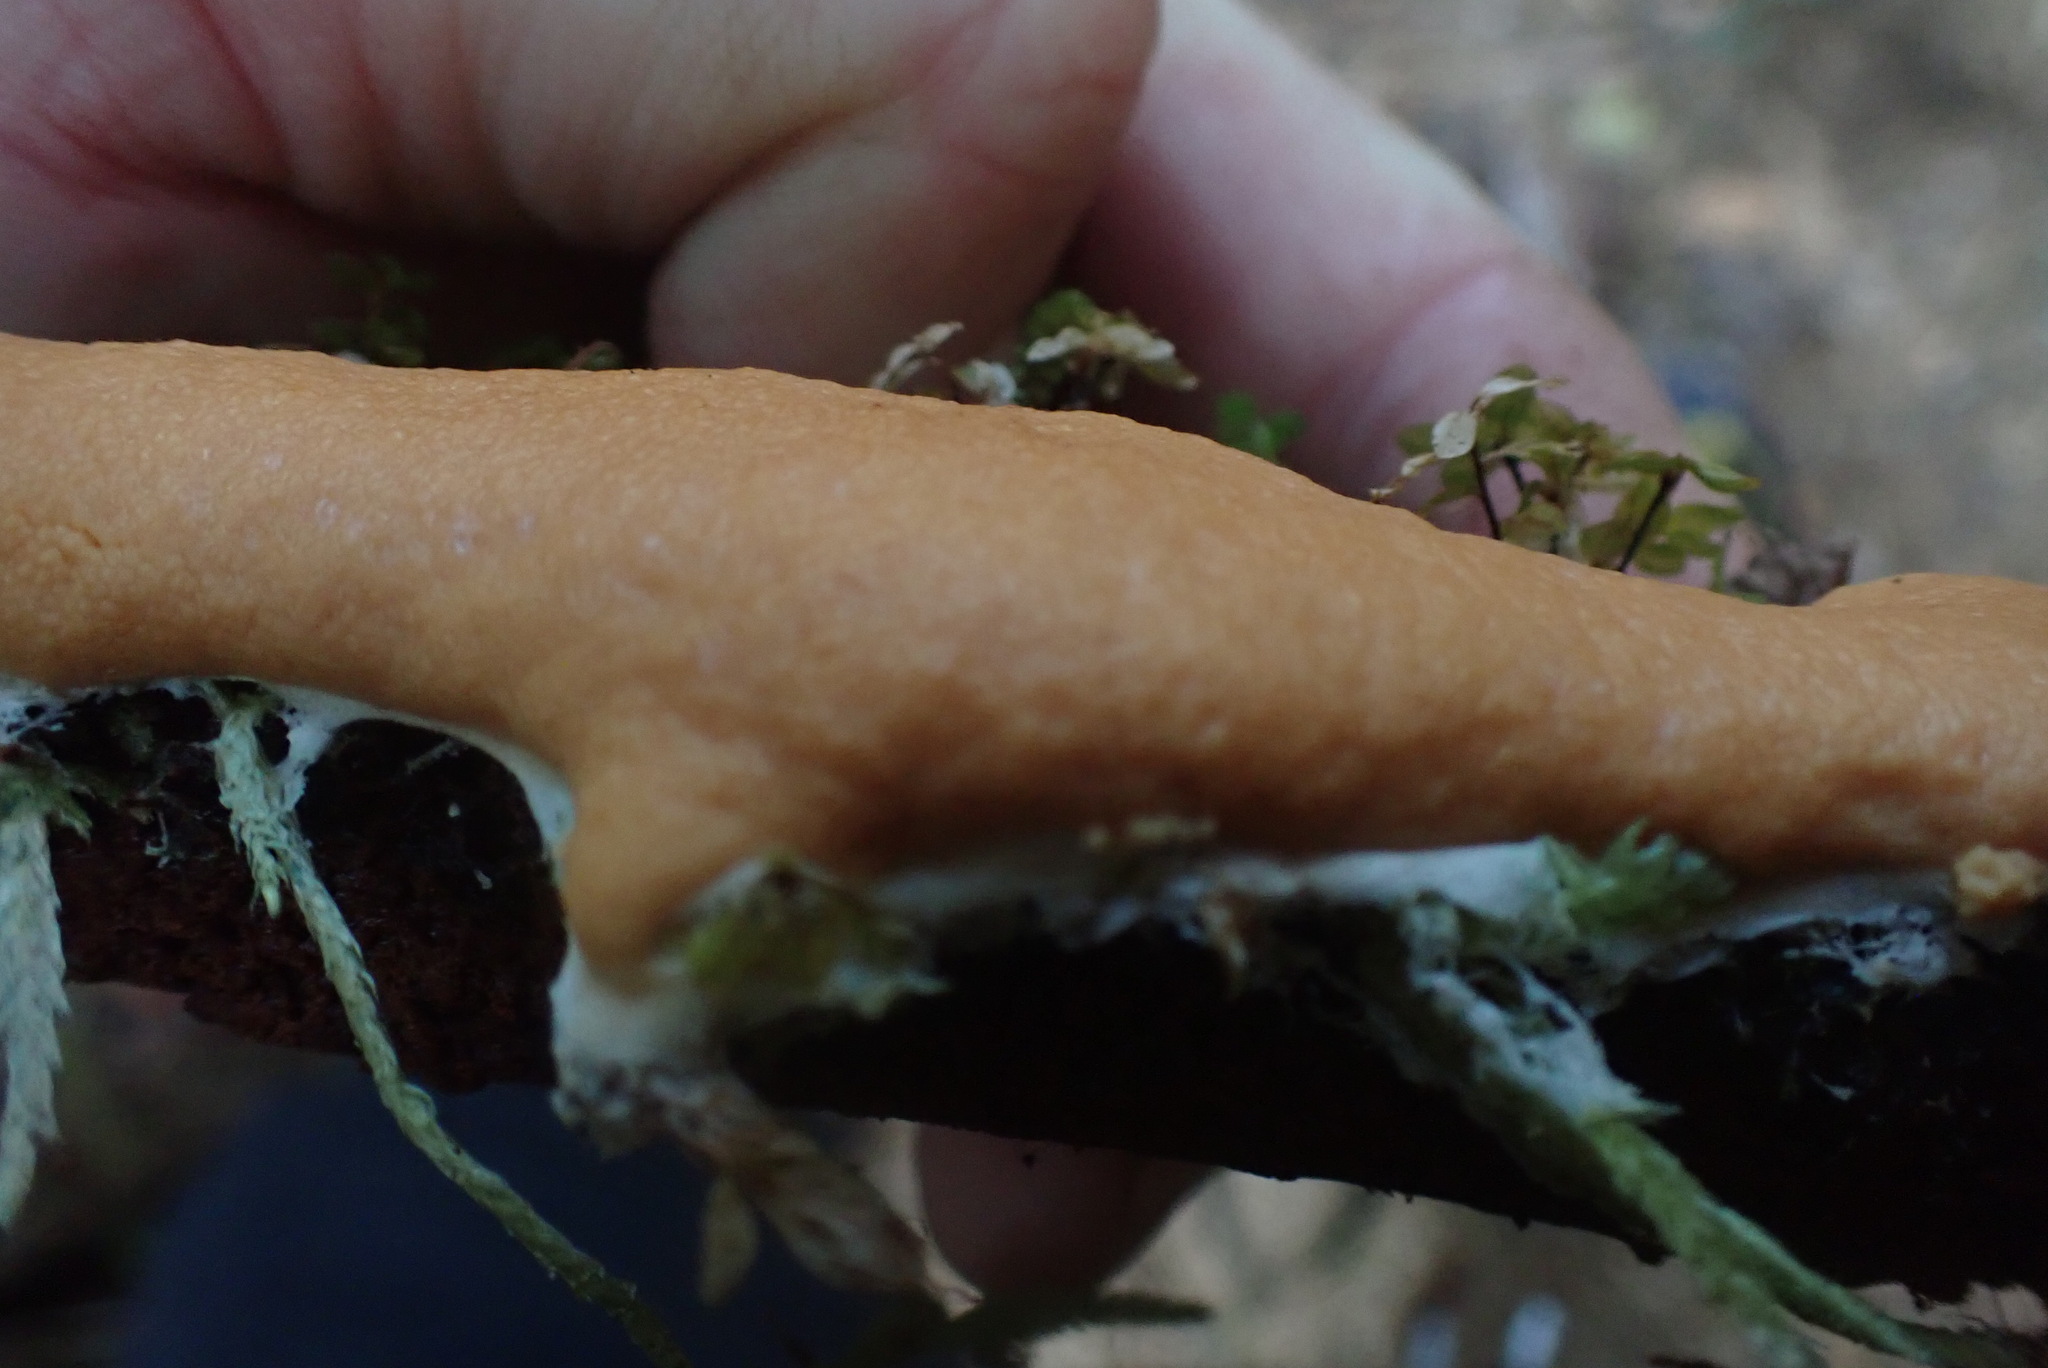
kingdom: Protozoa
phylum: Mycetozoa
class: Myxomycetes
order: Trichiales
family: Dictydiaethaliaceae
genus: Dictydiaethalium
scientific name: Dictydiaethalium plumbeum
